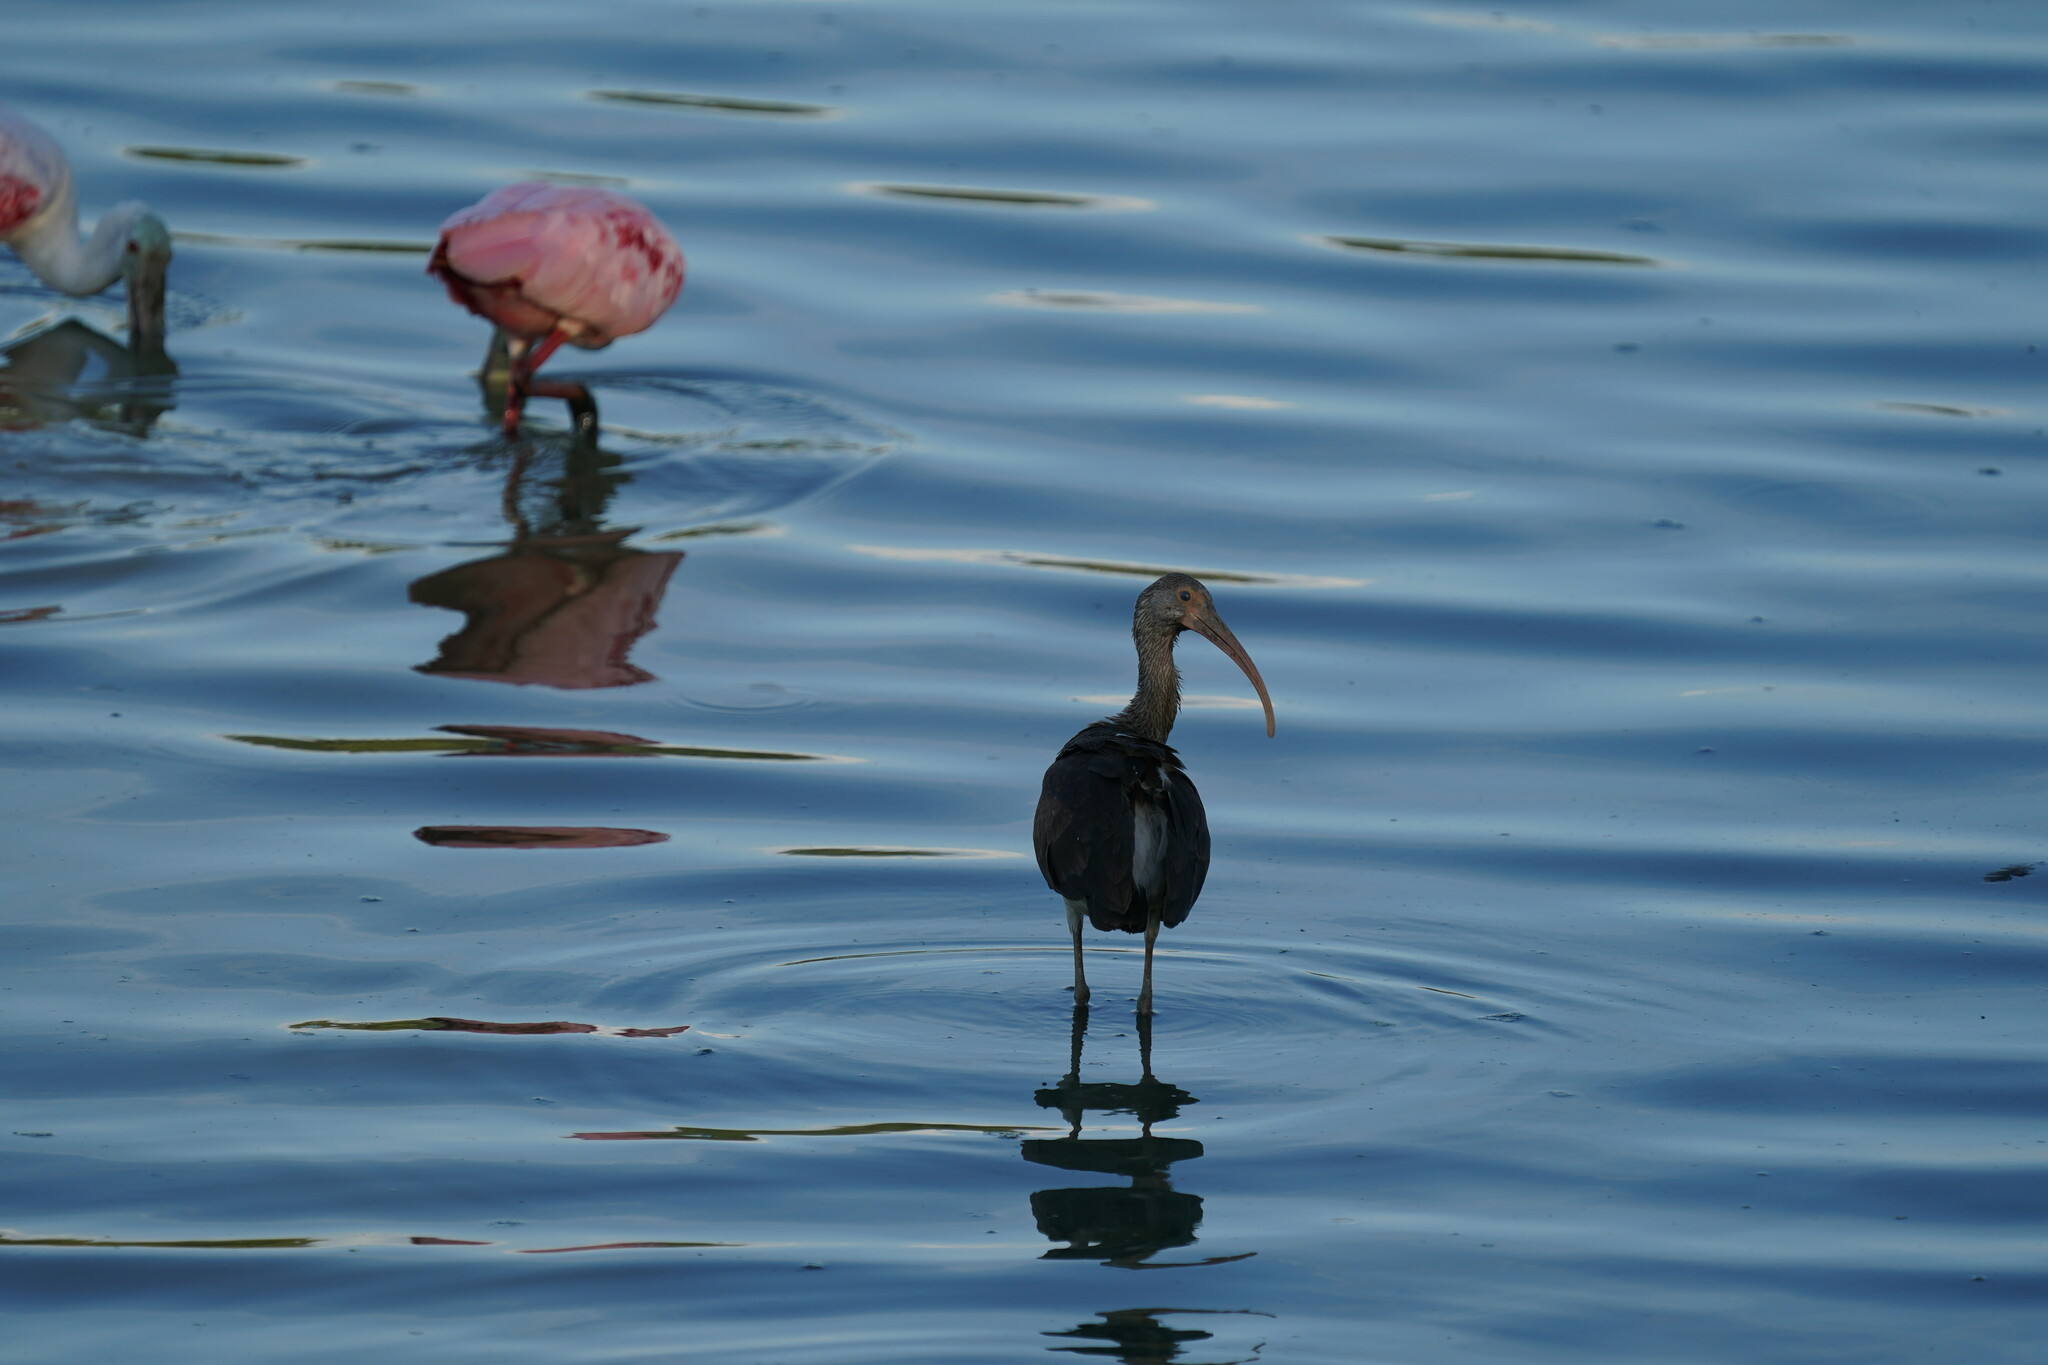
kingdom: Animalia
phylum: Chordata
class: Aves
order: Pelecaniformes
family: Threskiornithidae
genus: Eudocimus
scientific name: Eudocimus albus
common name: White ibis
